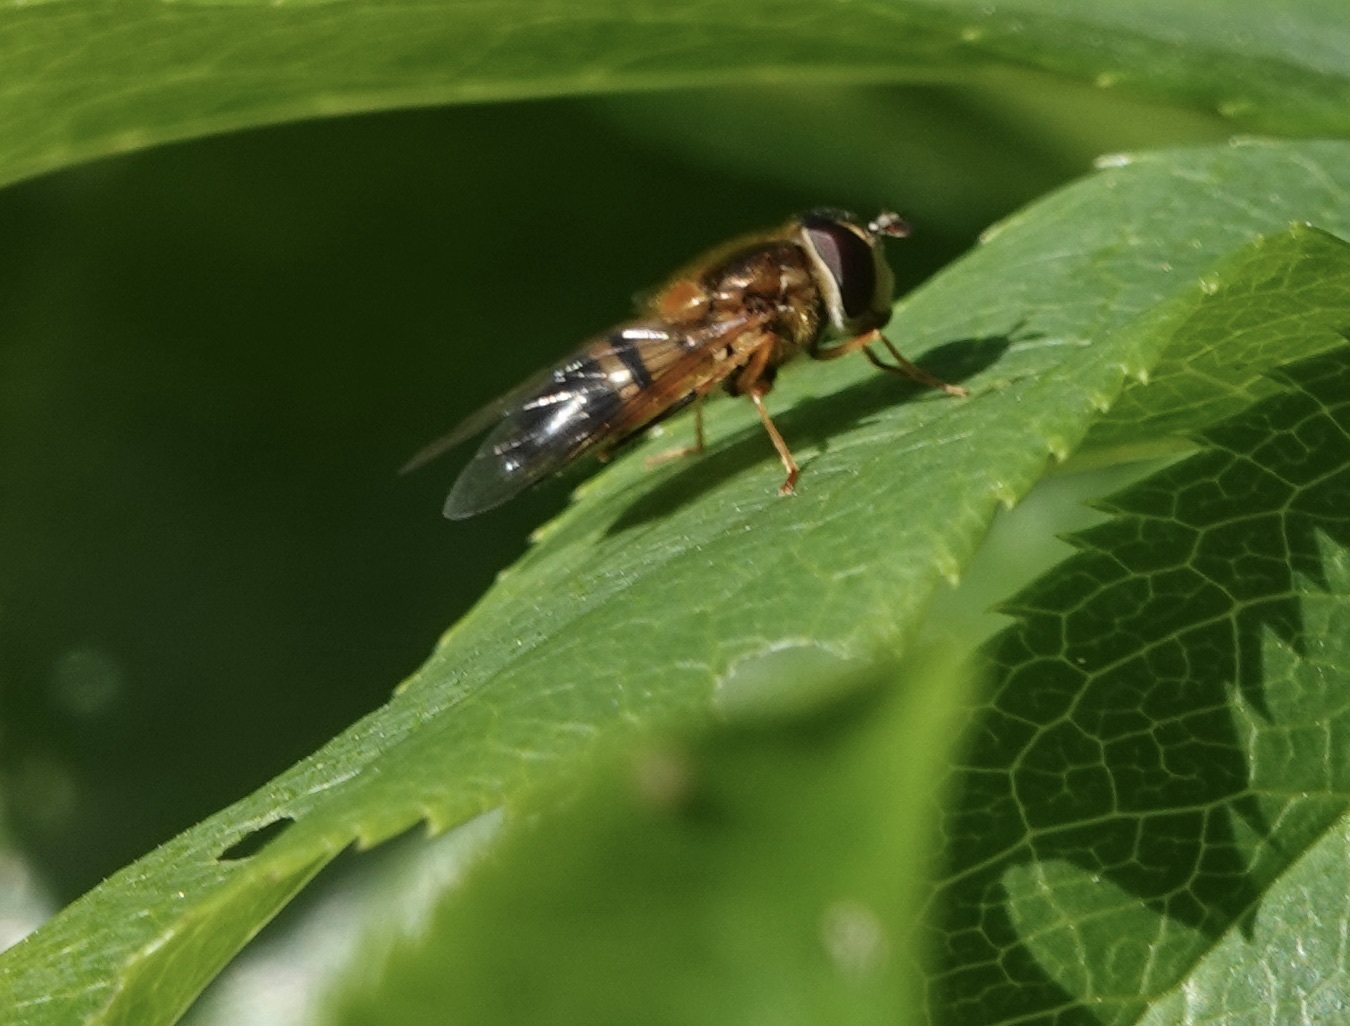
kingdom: Animalia
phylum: Arthropoda
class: Insecta
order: Diptera
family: Syrphidae
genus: Epistrophe
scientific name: Epistrophe eligans
